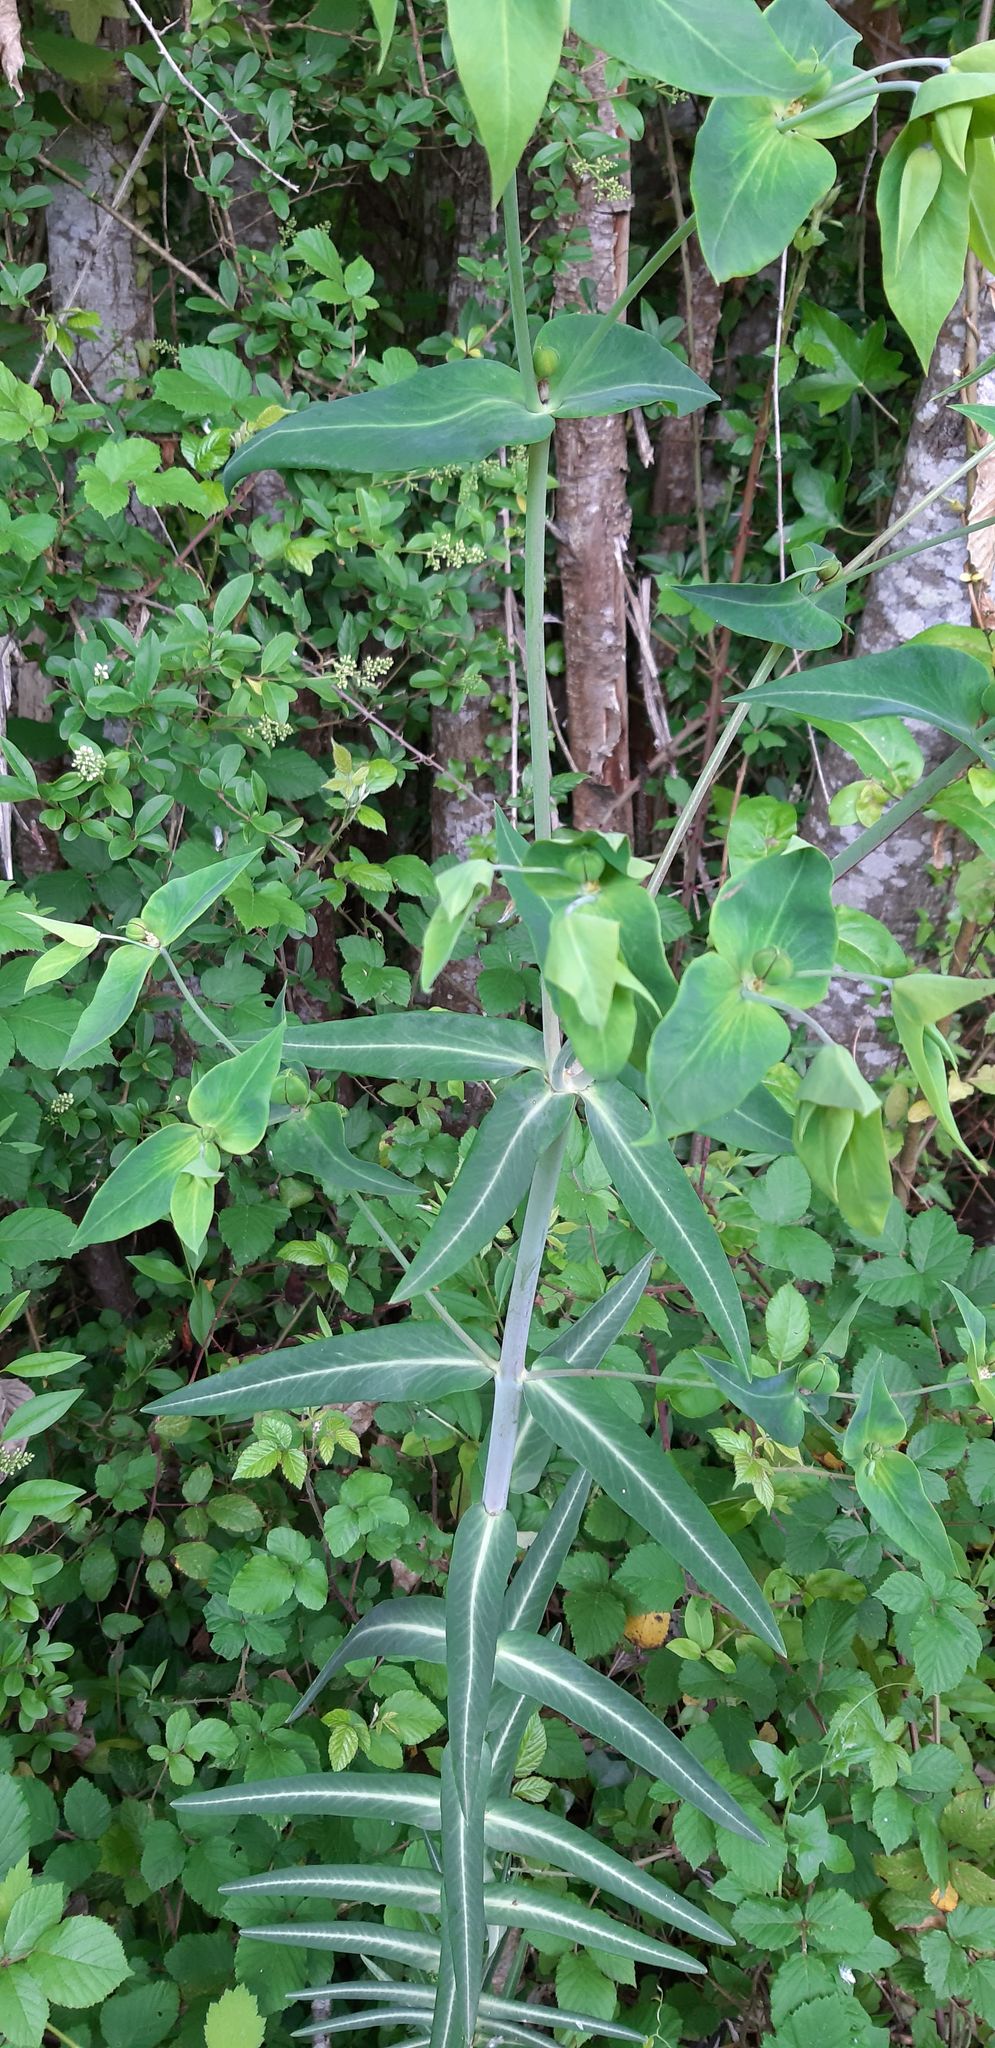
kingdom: Plantae
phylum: Tracheophyta
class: Magnoliopsida
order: Malpighiales
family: Euphorbiaceae
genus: Euphorbia
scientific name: Euphorbia lathyris
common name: Caper spurge
